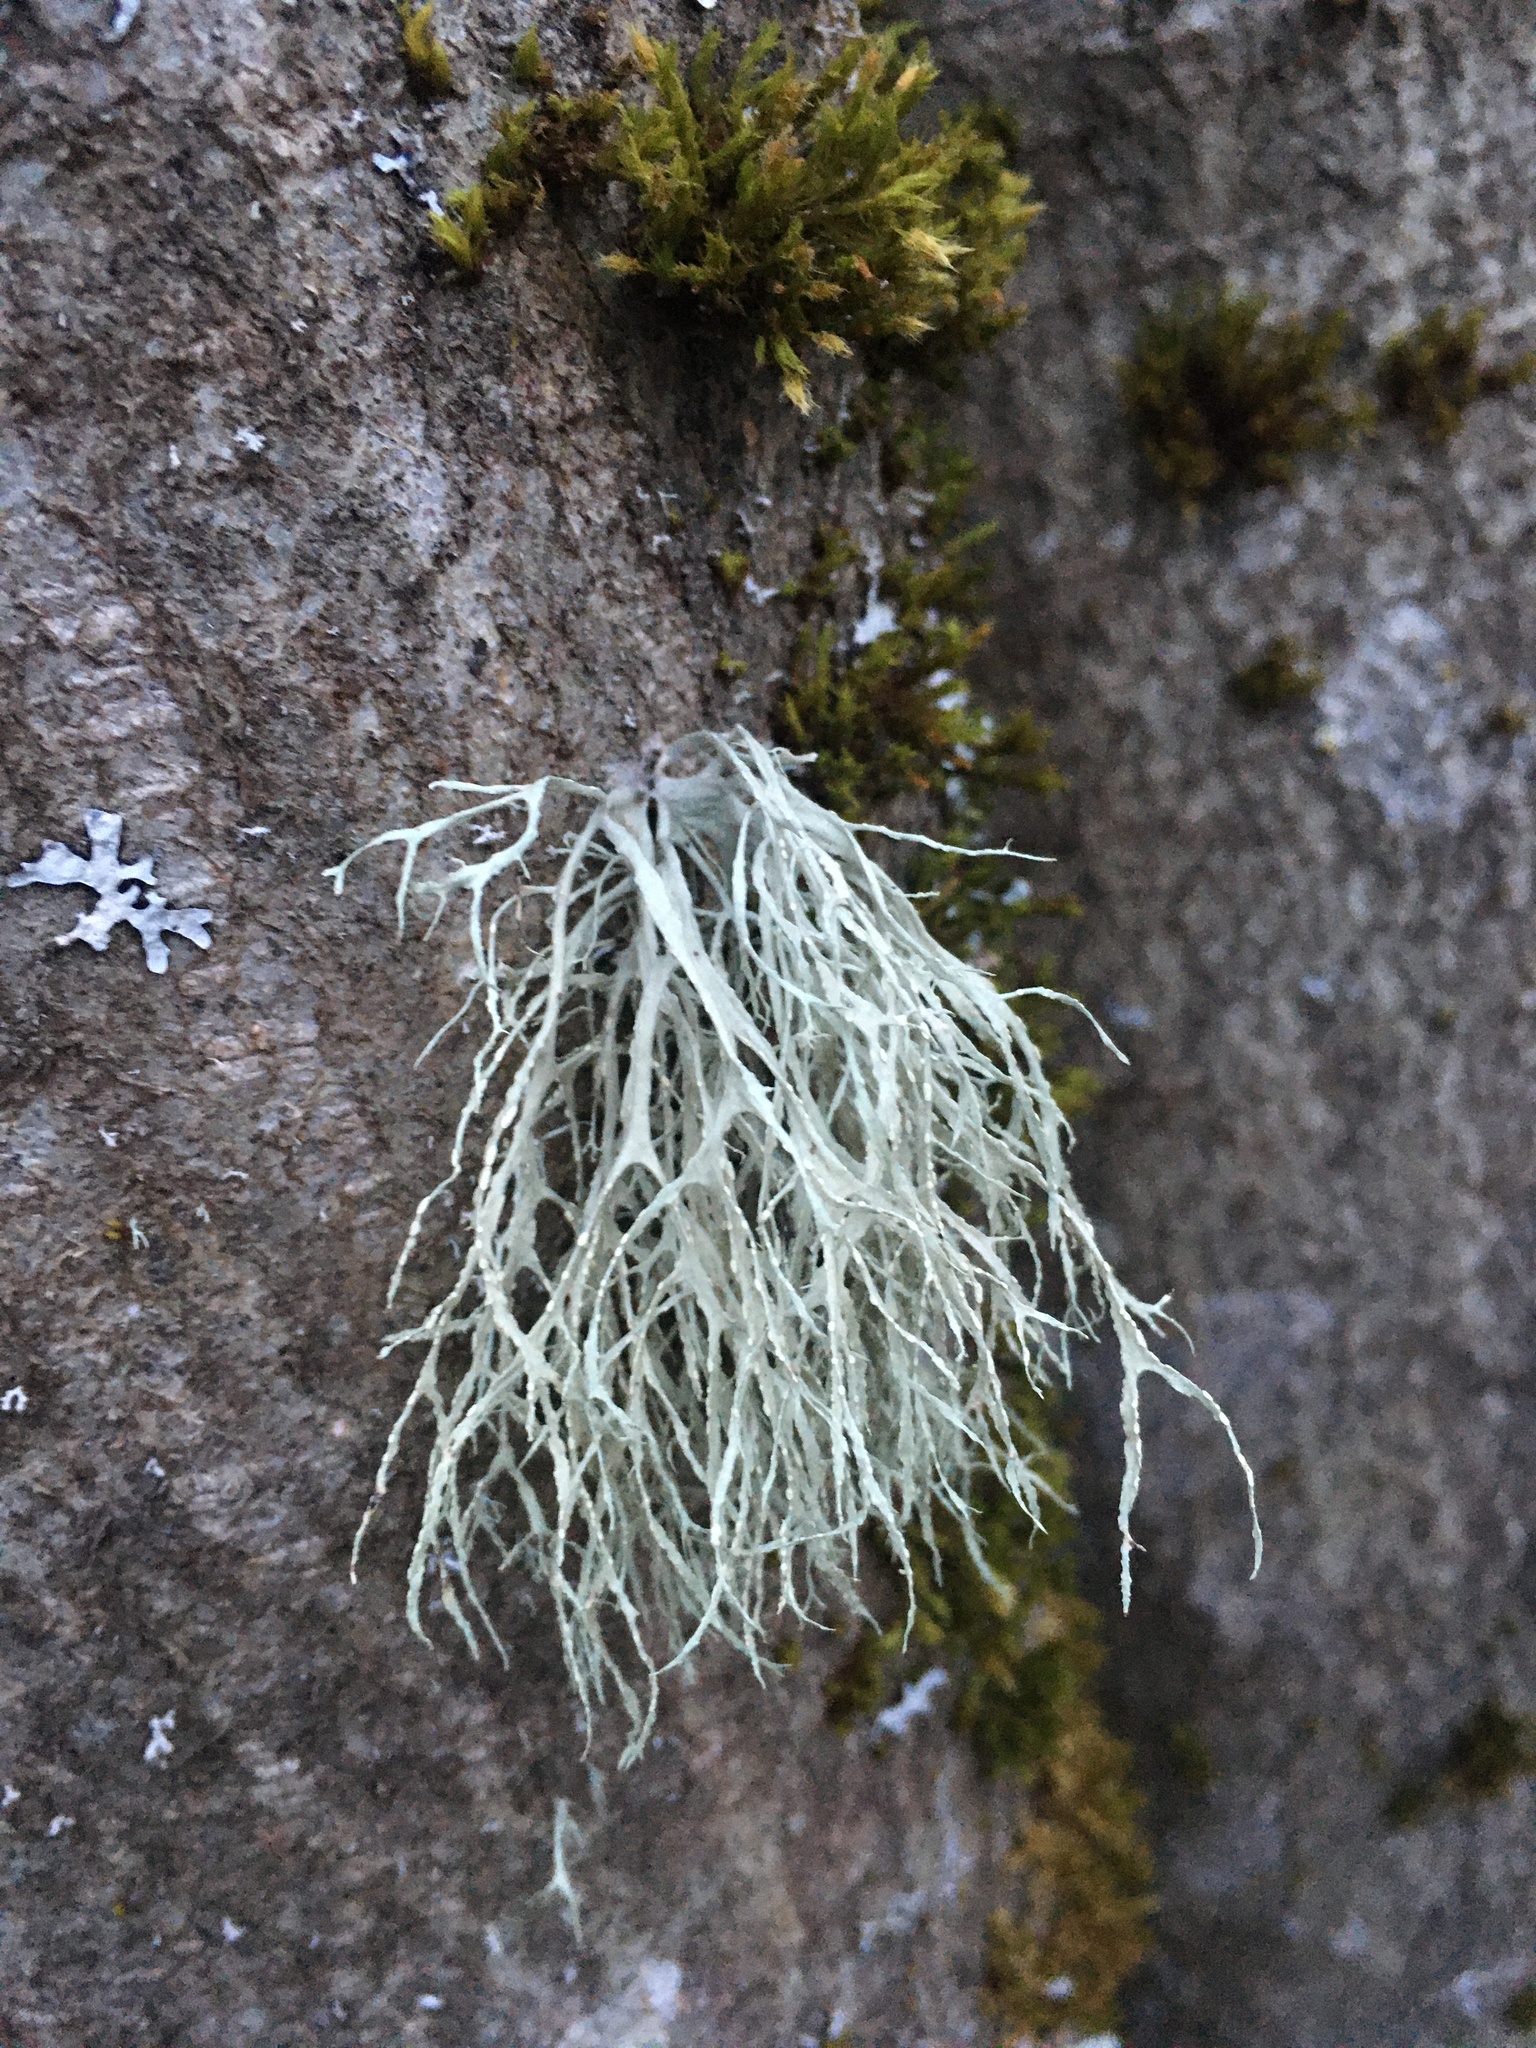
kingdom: Fungi
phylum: Ascomycota
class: Lecanoromycetes
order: Lecanorales
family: Ramalinaceae
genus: Ramalina
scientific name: Ramalina farinacea
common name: Farinose cartilage lichen
